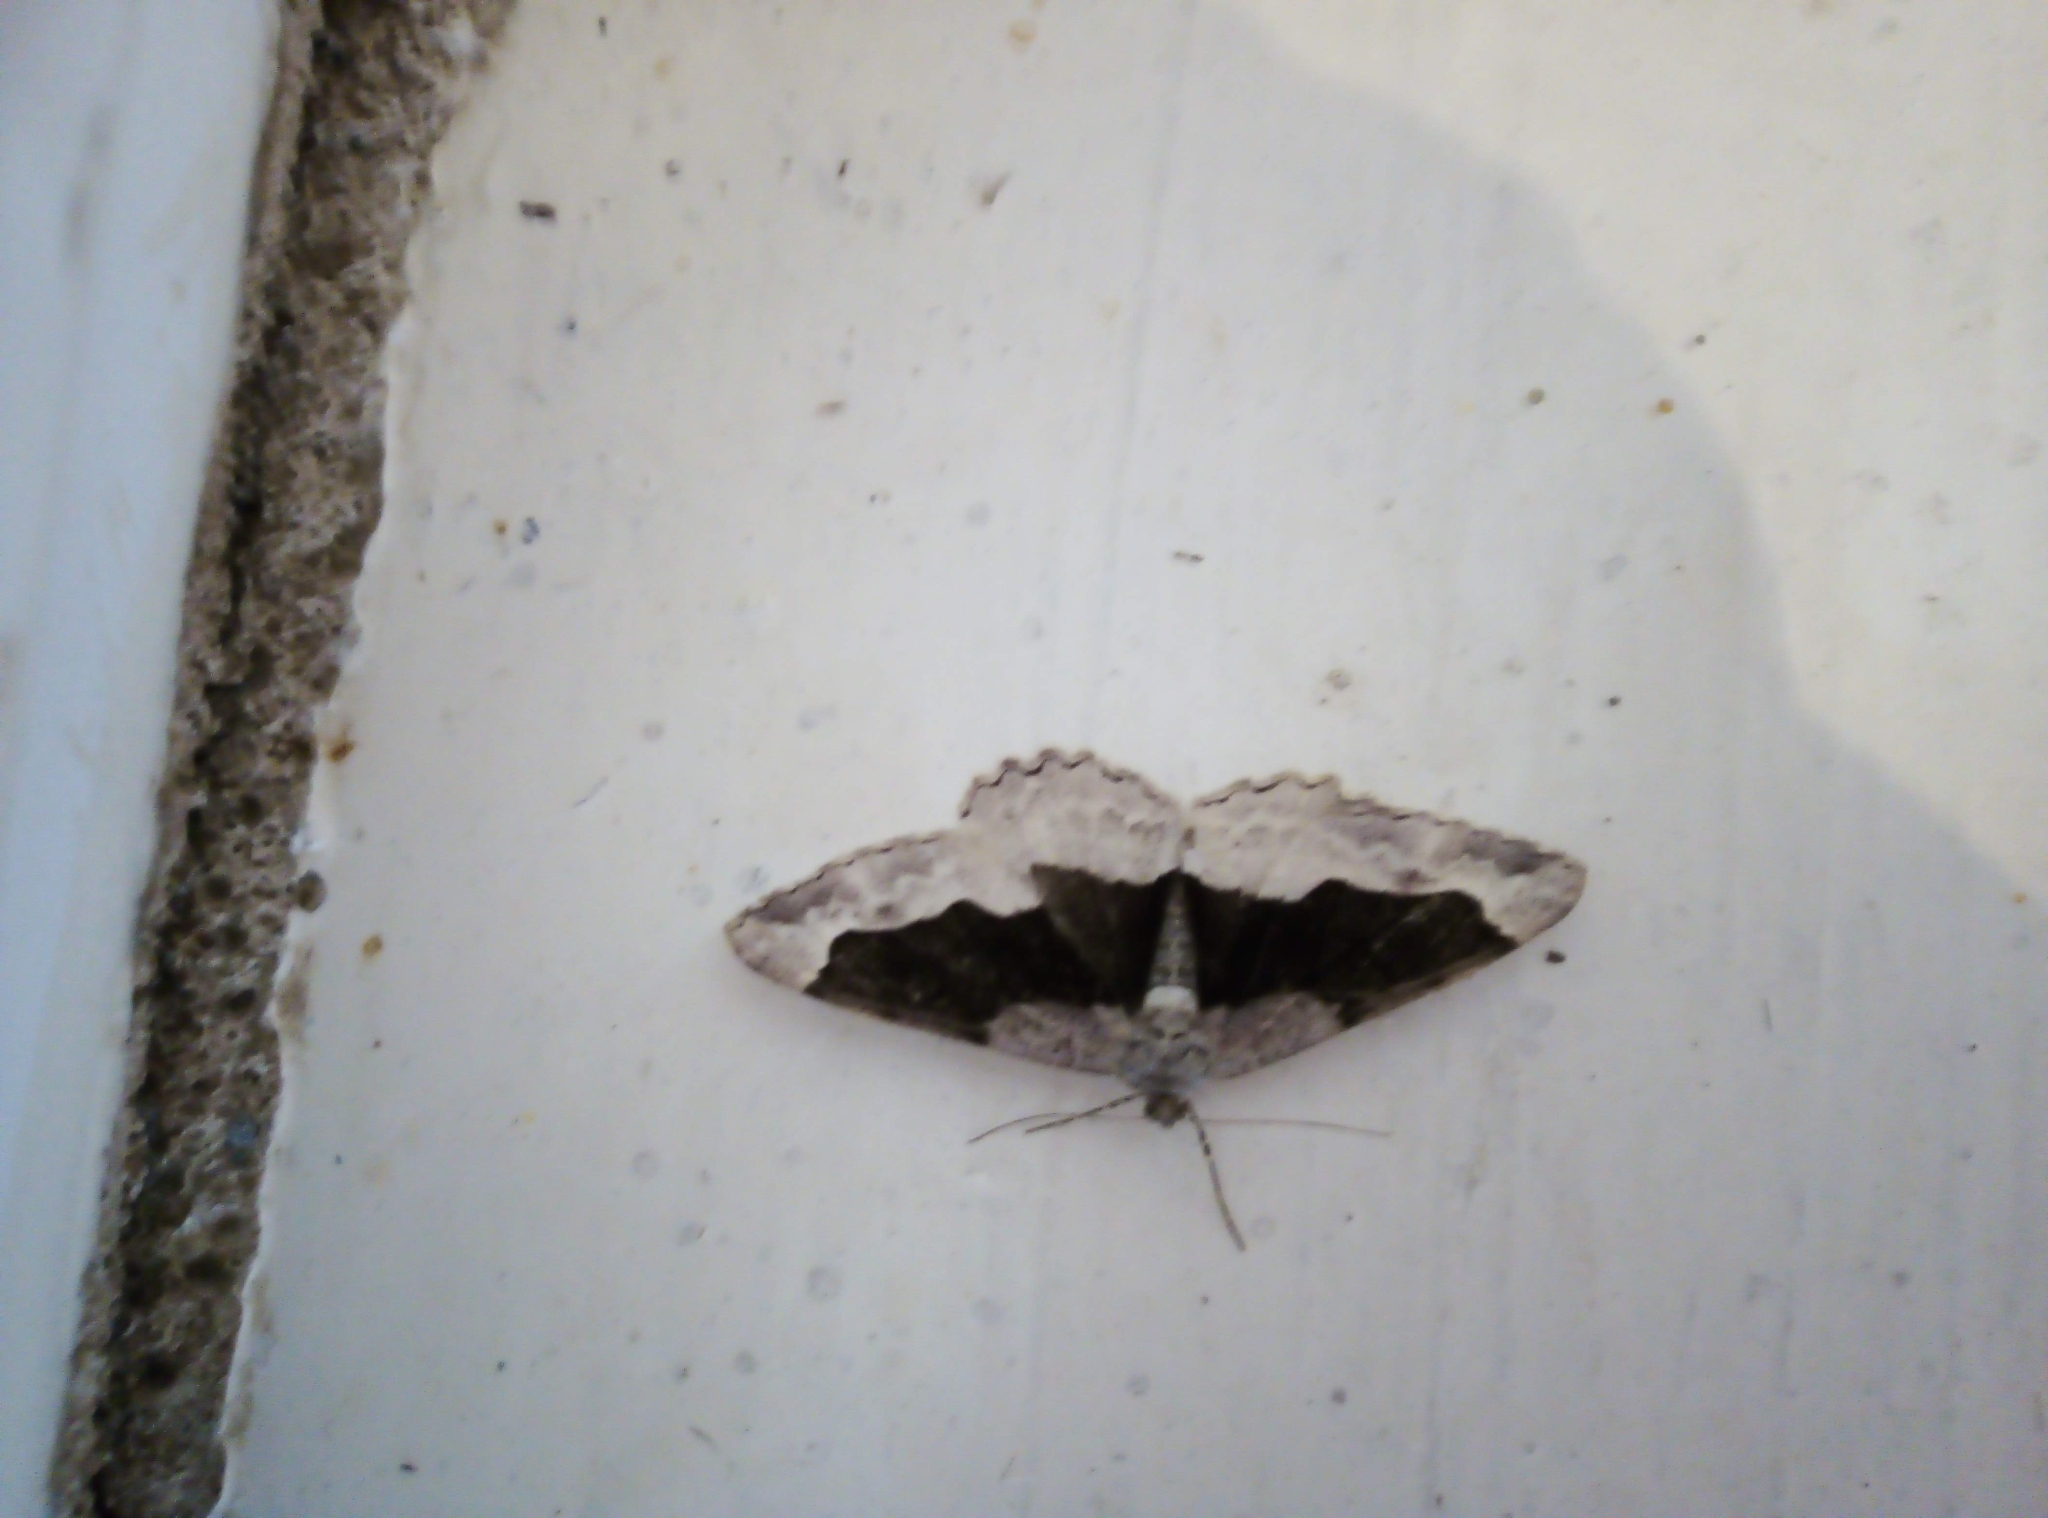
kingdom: Animalia
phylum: Arthropoda
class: Insecta
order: Lepidoptera
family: Geometridae
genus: Alcis
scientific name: Alcis repandata
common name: Mottled beauty
